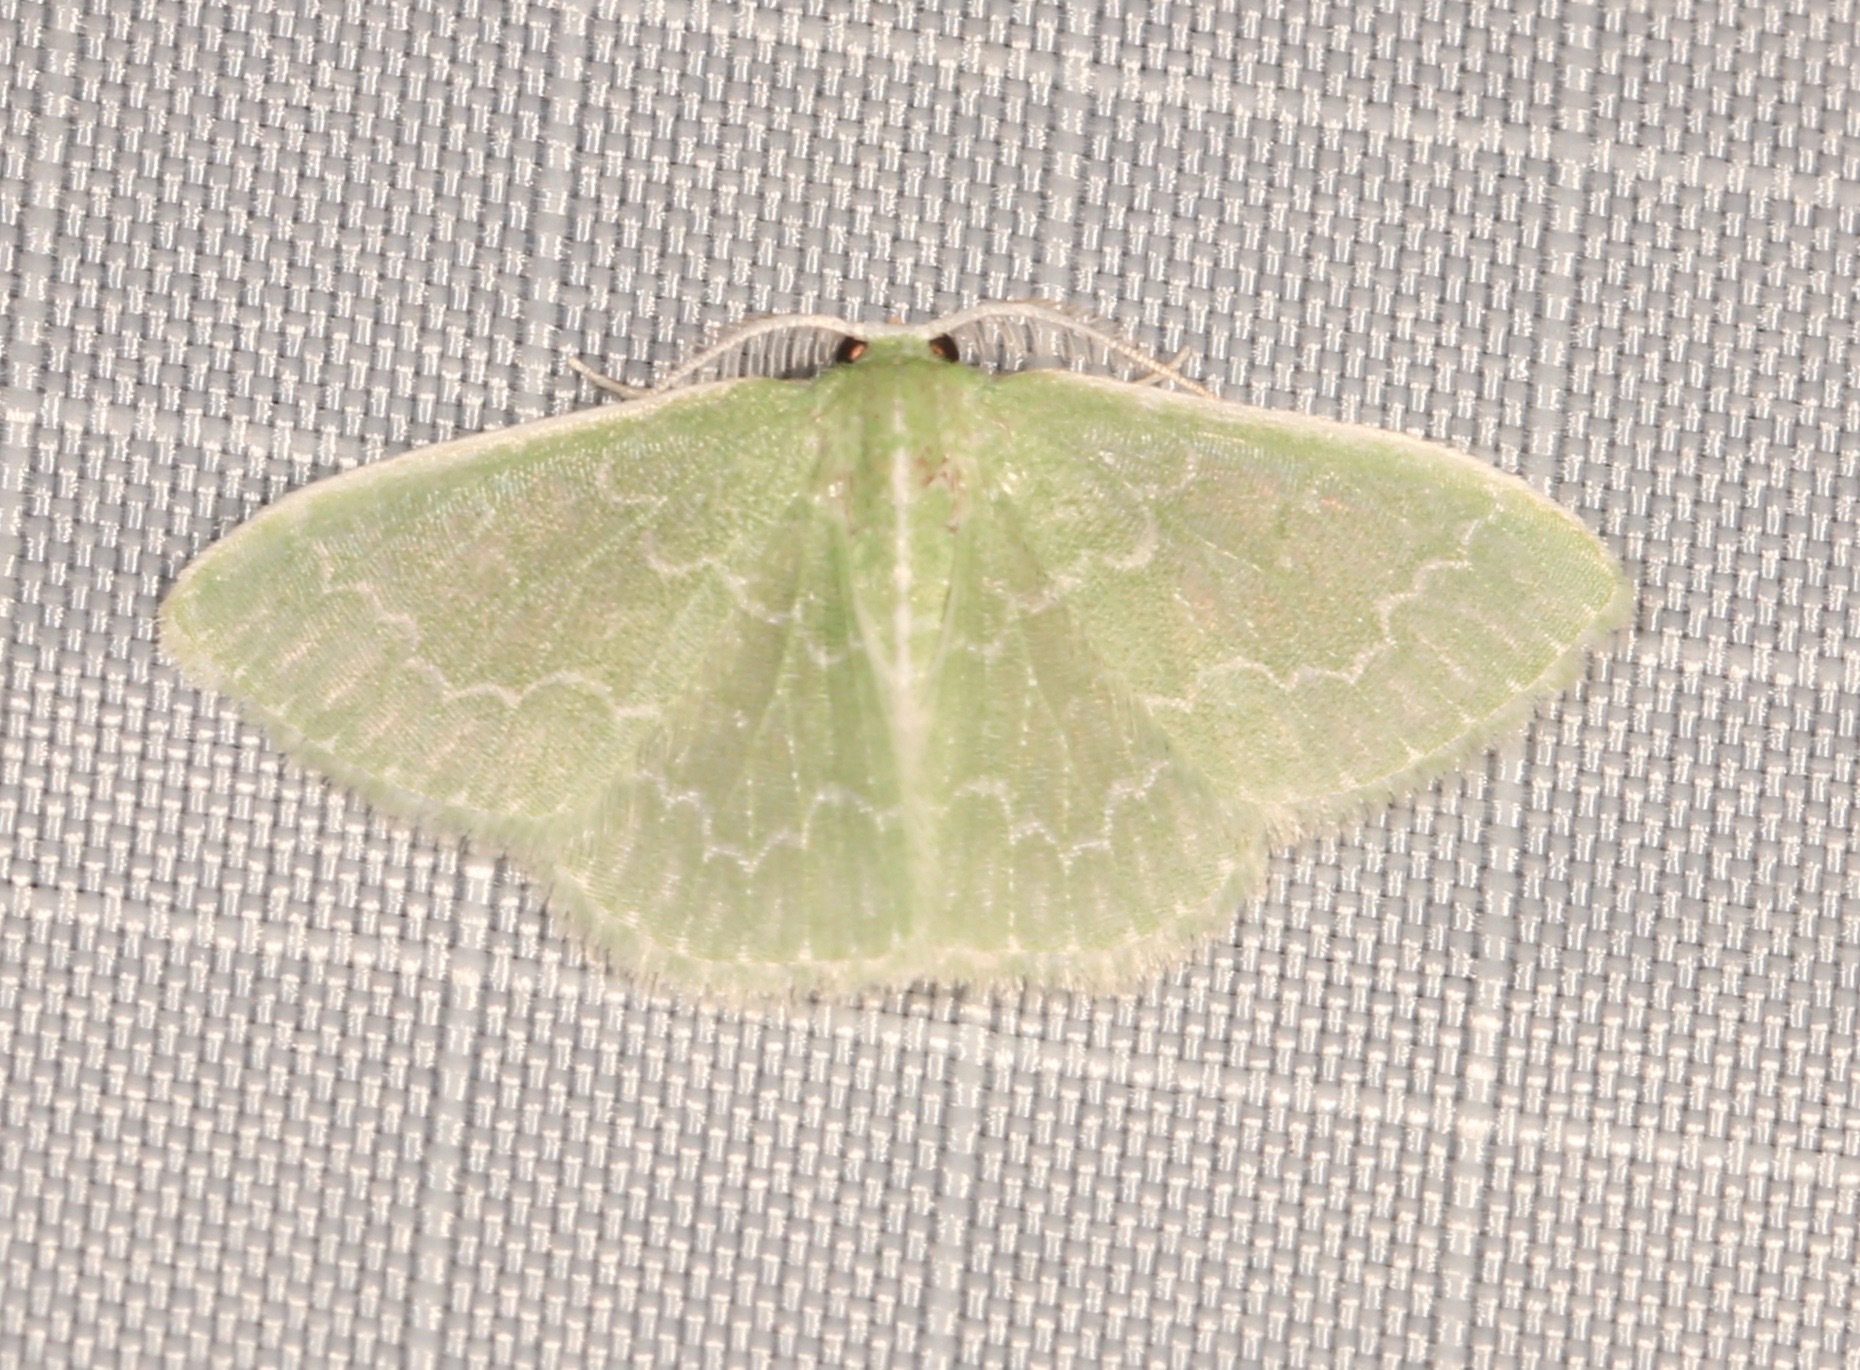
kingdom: Animalia
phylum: Arthropoda
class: Insecta
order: Lepidoptera
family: Geometridae
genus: Synchlora
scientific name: Synchlora frondaria
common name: Southern emerald
